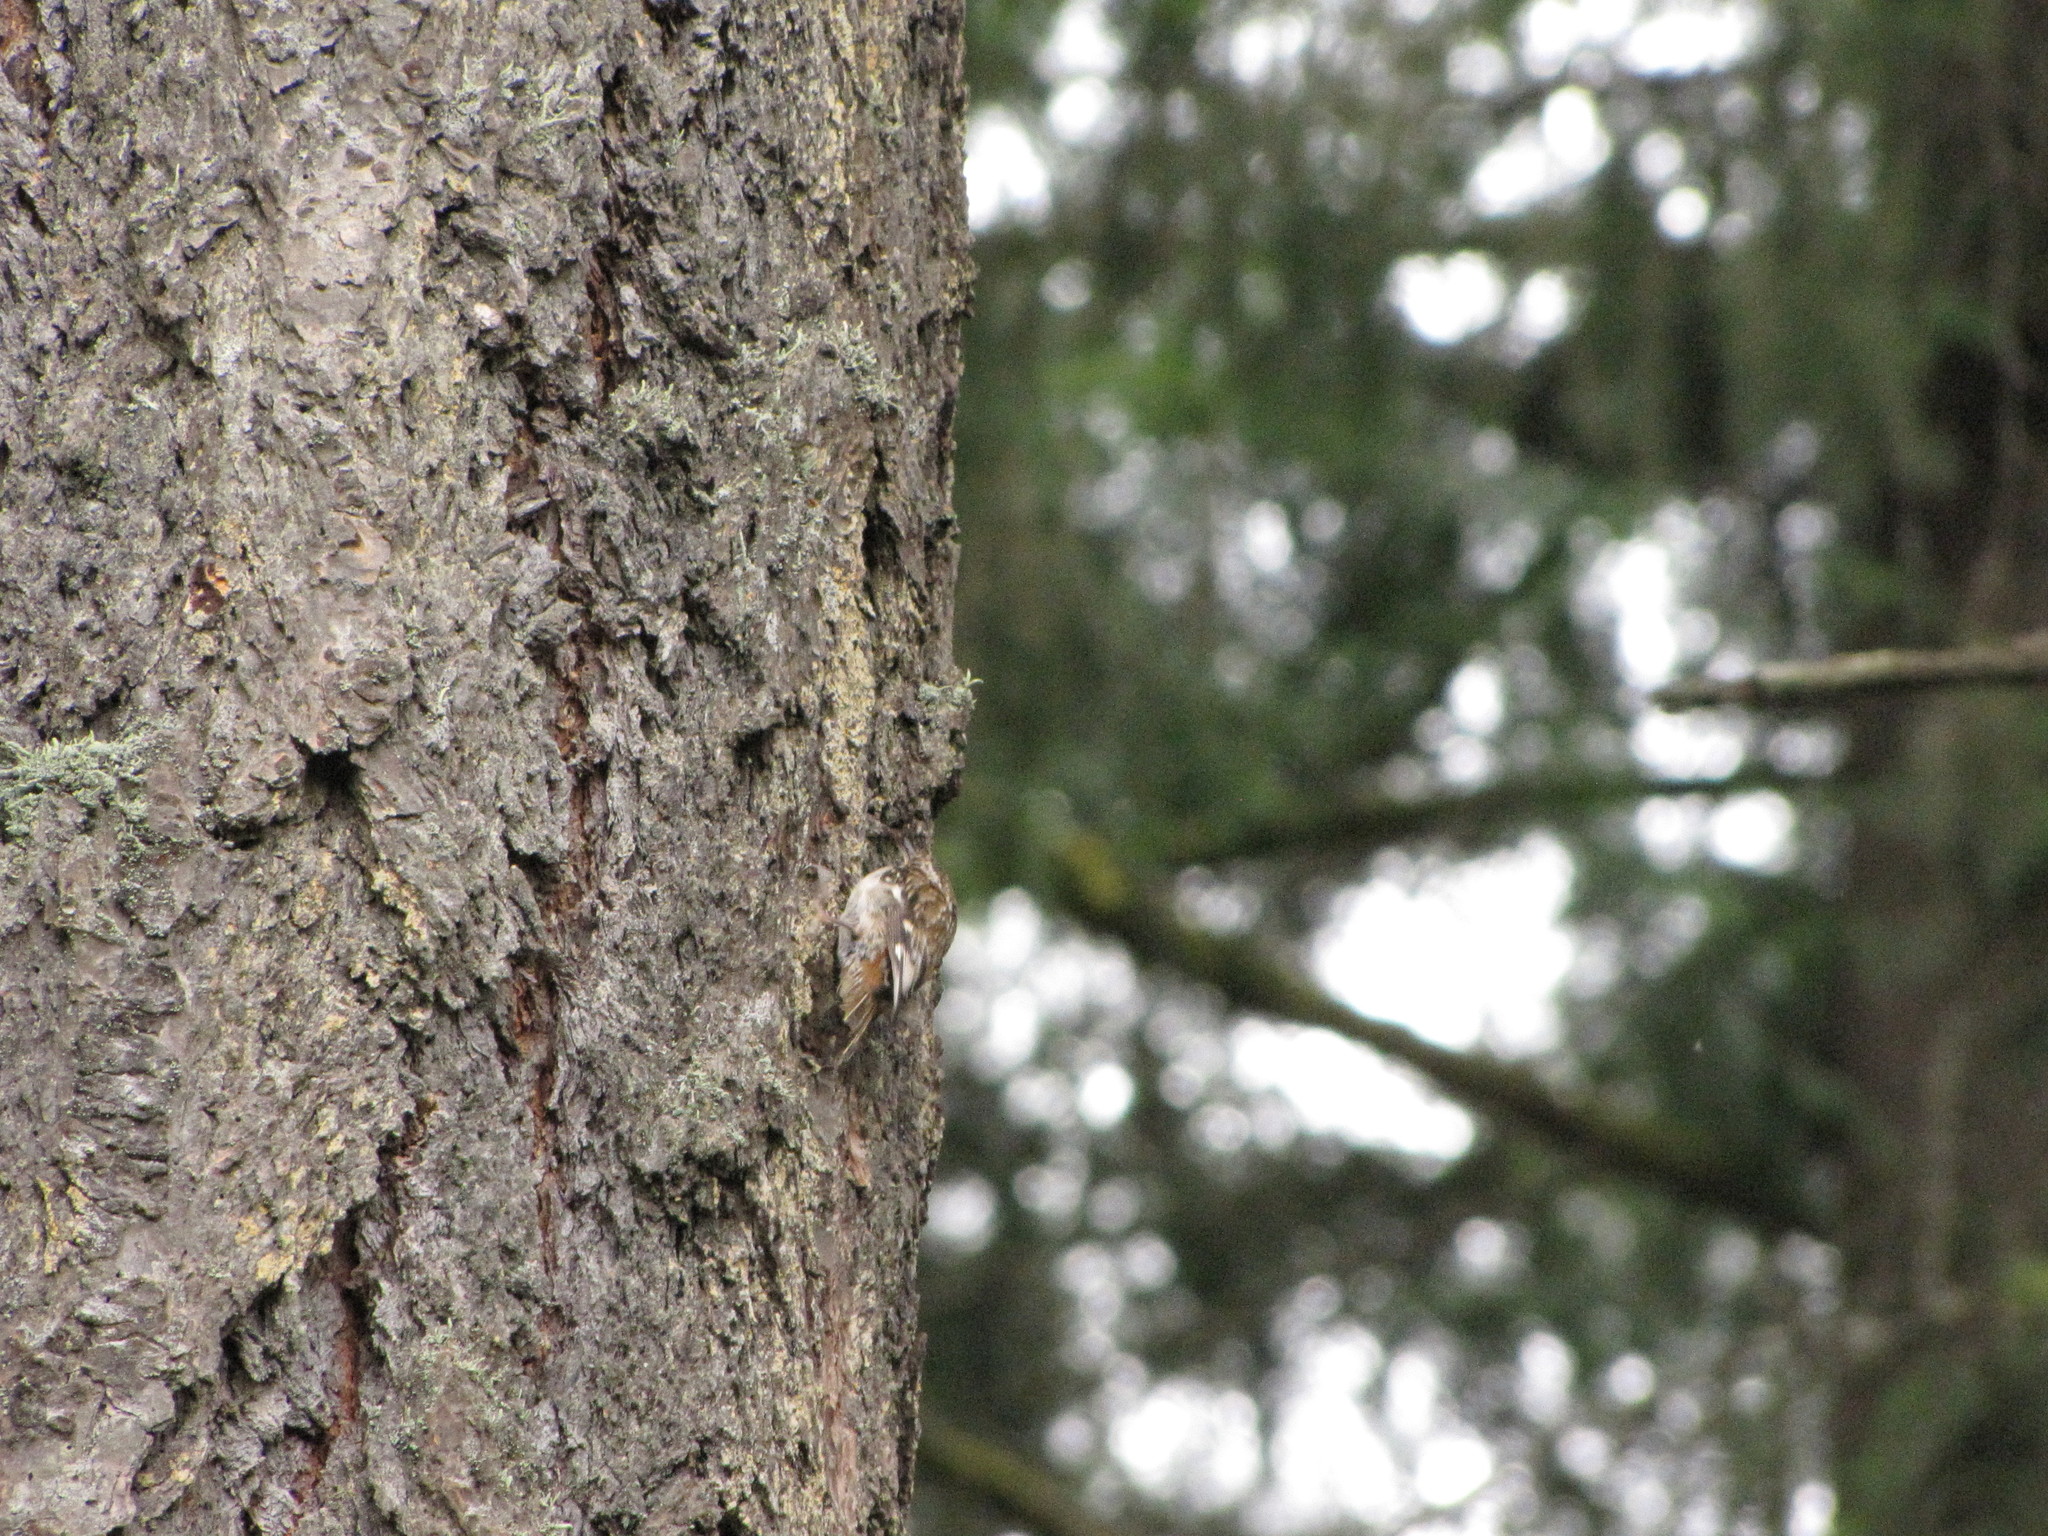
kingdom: Animalia
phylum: Chordata
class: Aves
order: Passeriformes
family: Certhiidae
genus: Certhia
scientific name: Certhia americana
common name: Brown creeper
